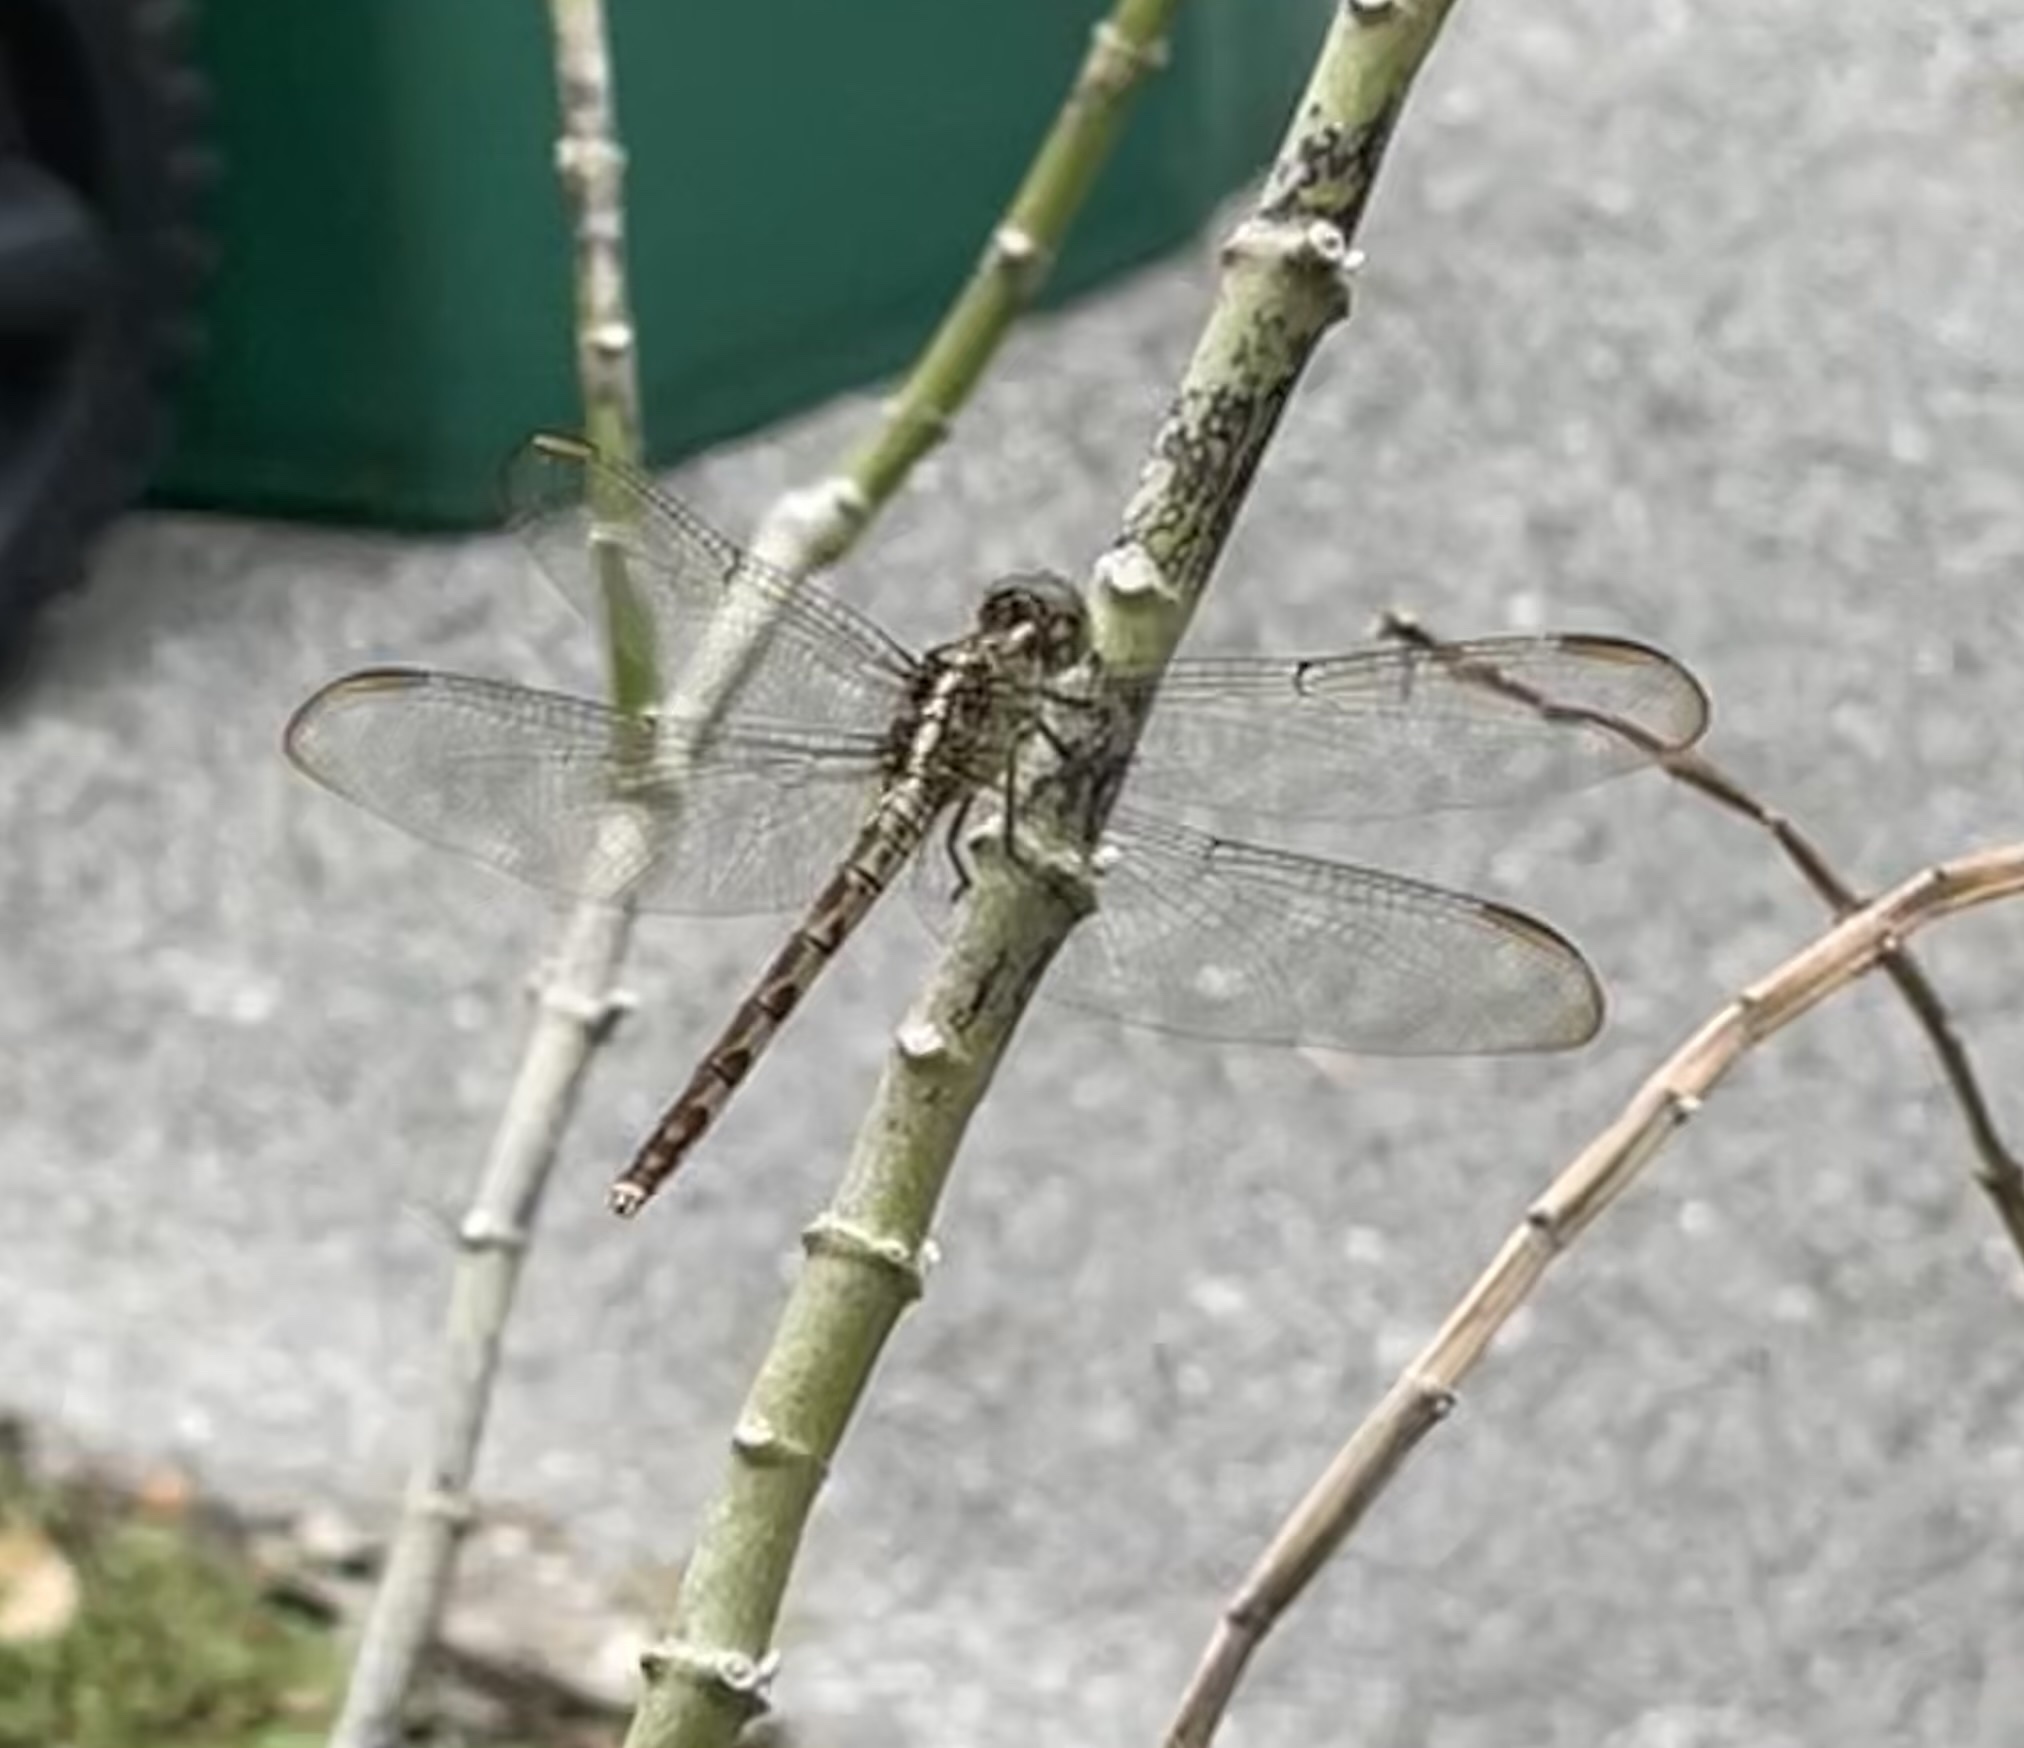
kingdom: Animalia
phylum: Arthropoda
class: Insecta
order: Odonata
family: Libellulidae
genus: Erythrodiplax
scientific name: Erythrodiplax umbrata
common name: Band-winged dragonlet
